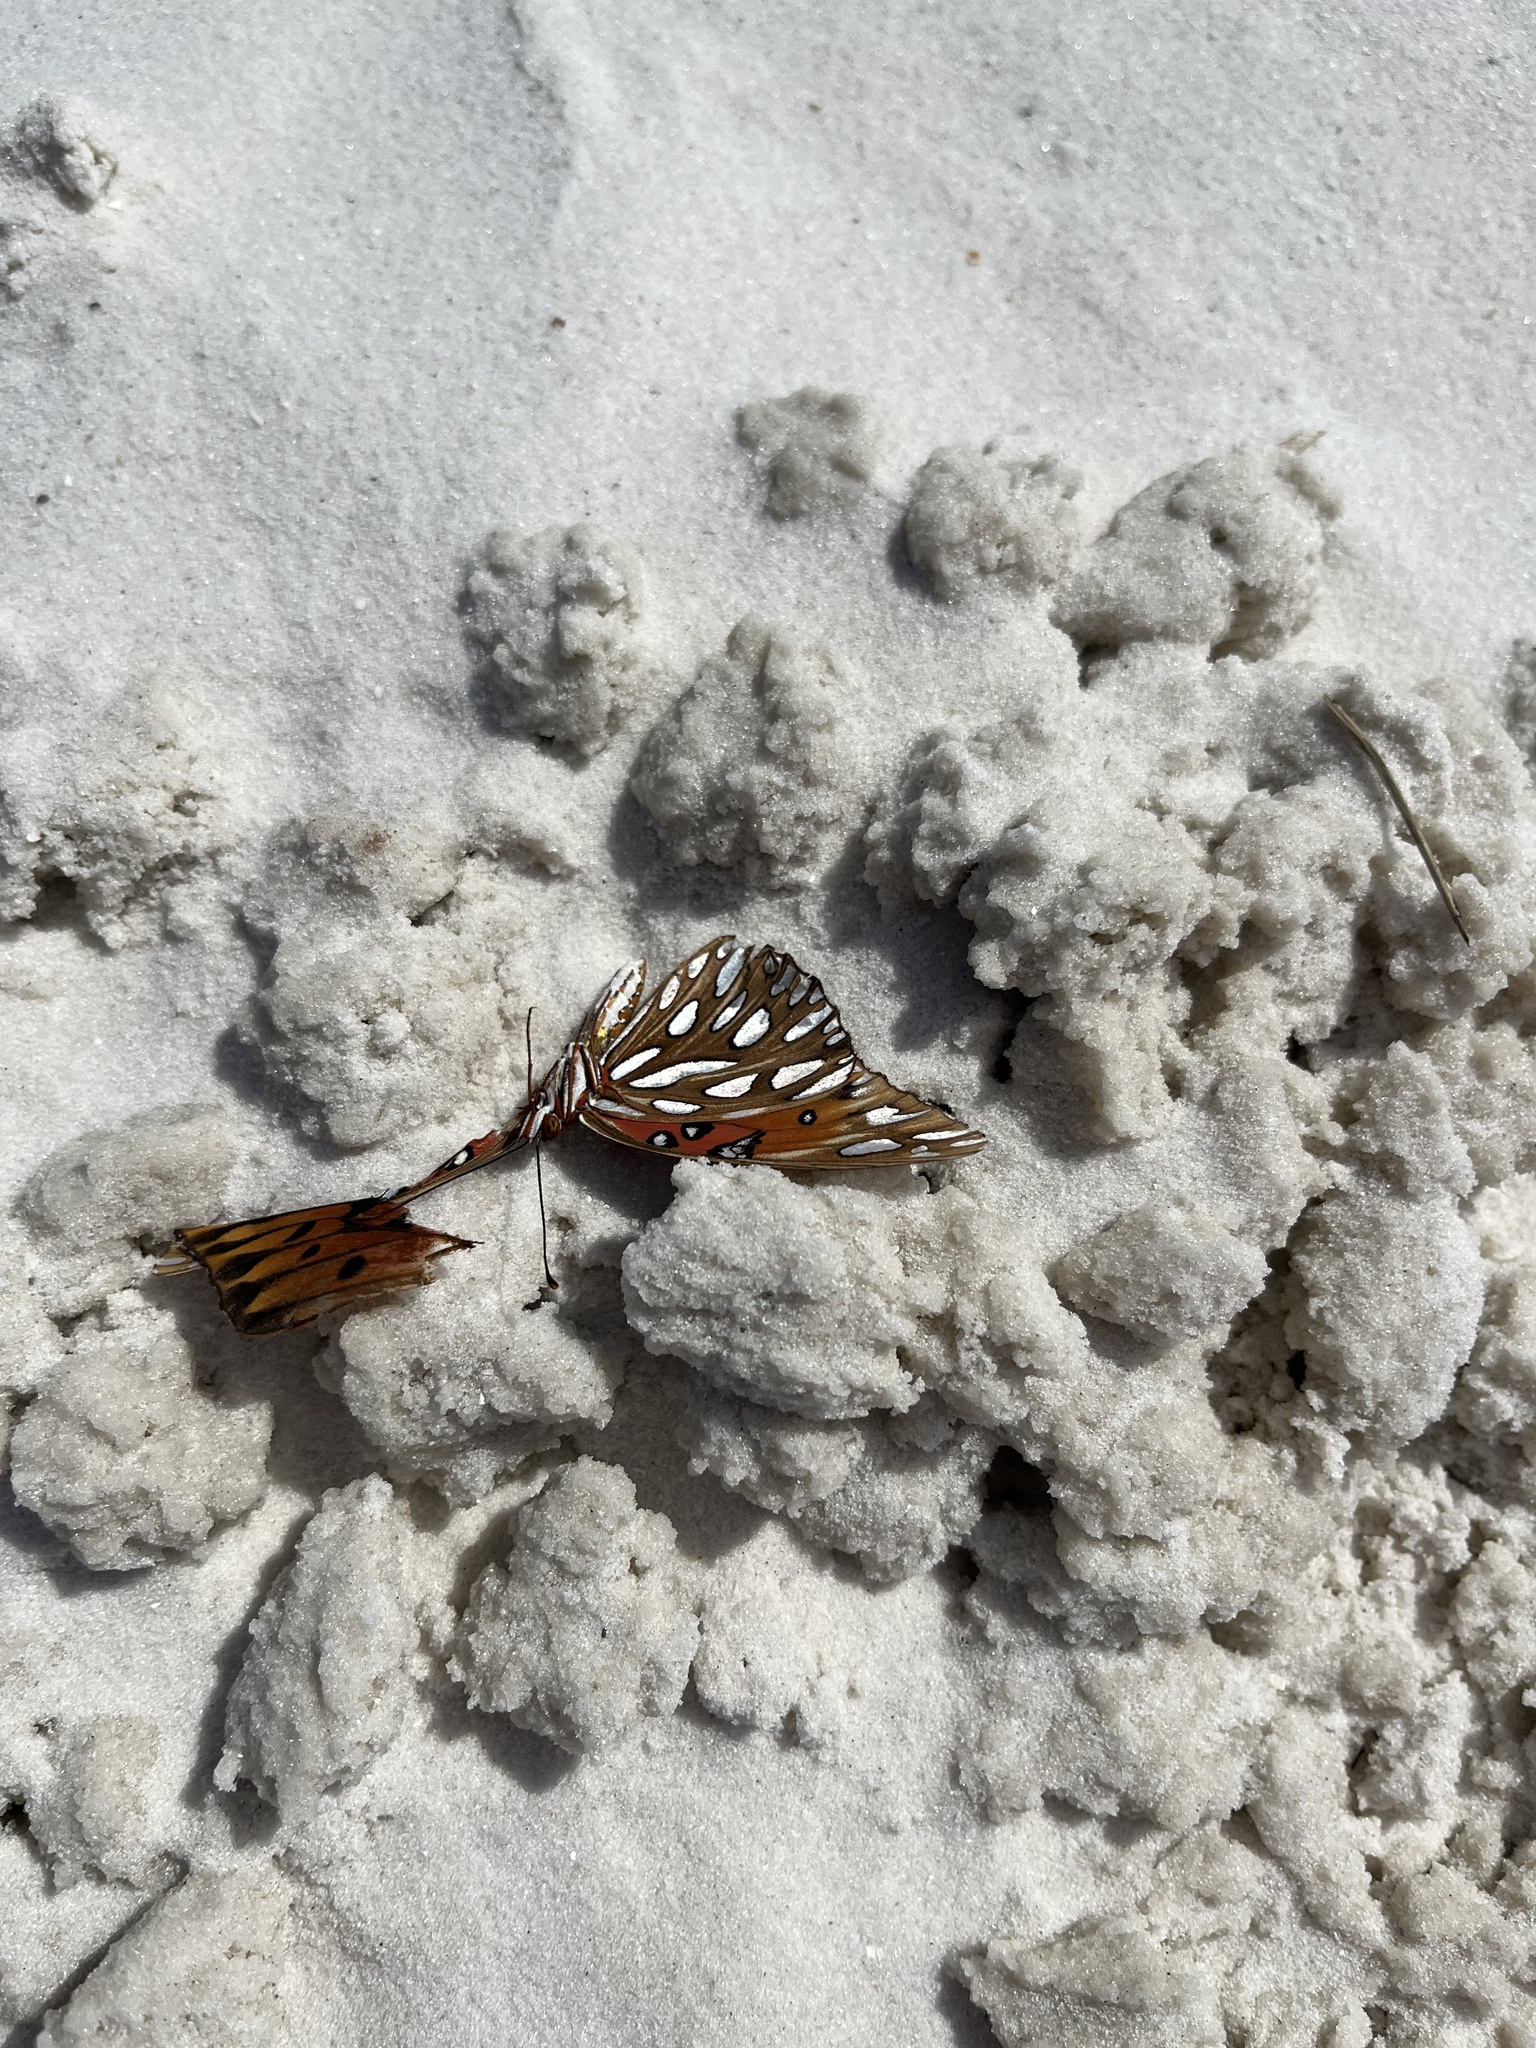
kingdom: Animalia
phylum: Arthropoda
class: Insecta
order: Lepidoptera
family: Nymphalidae
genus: Dione
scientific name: Dione vanillae
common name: Gulf fritillary
